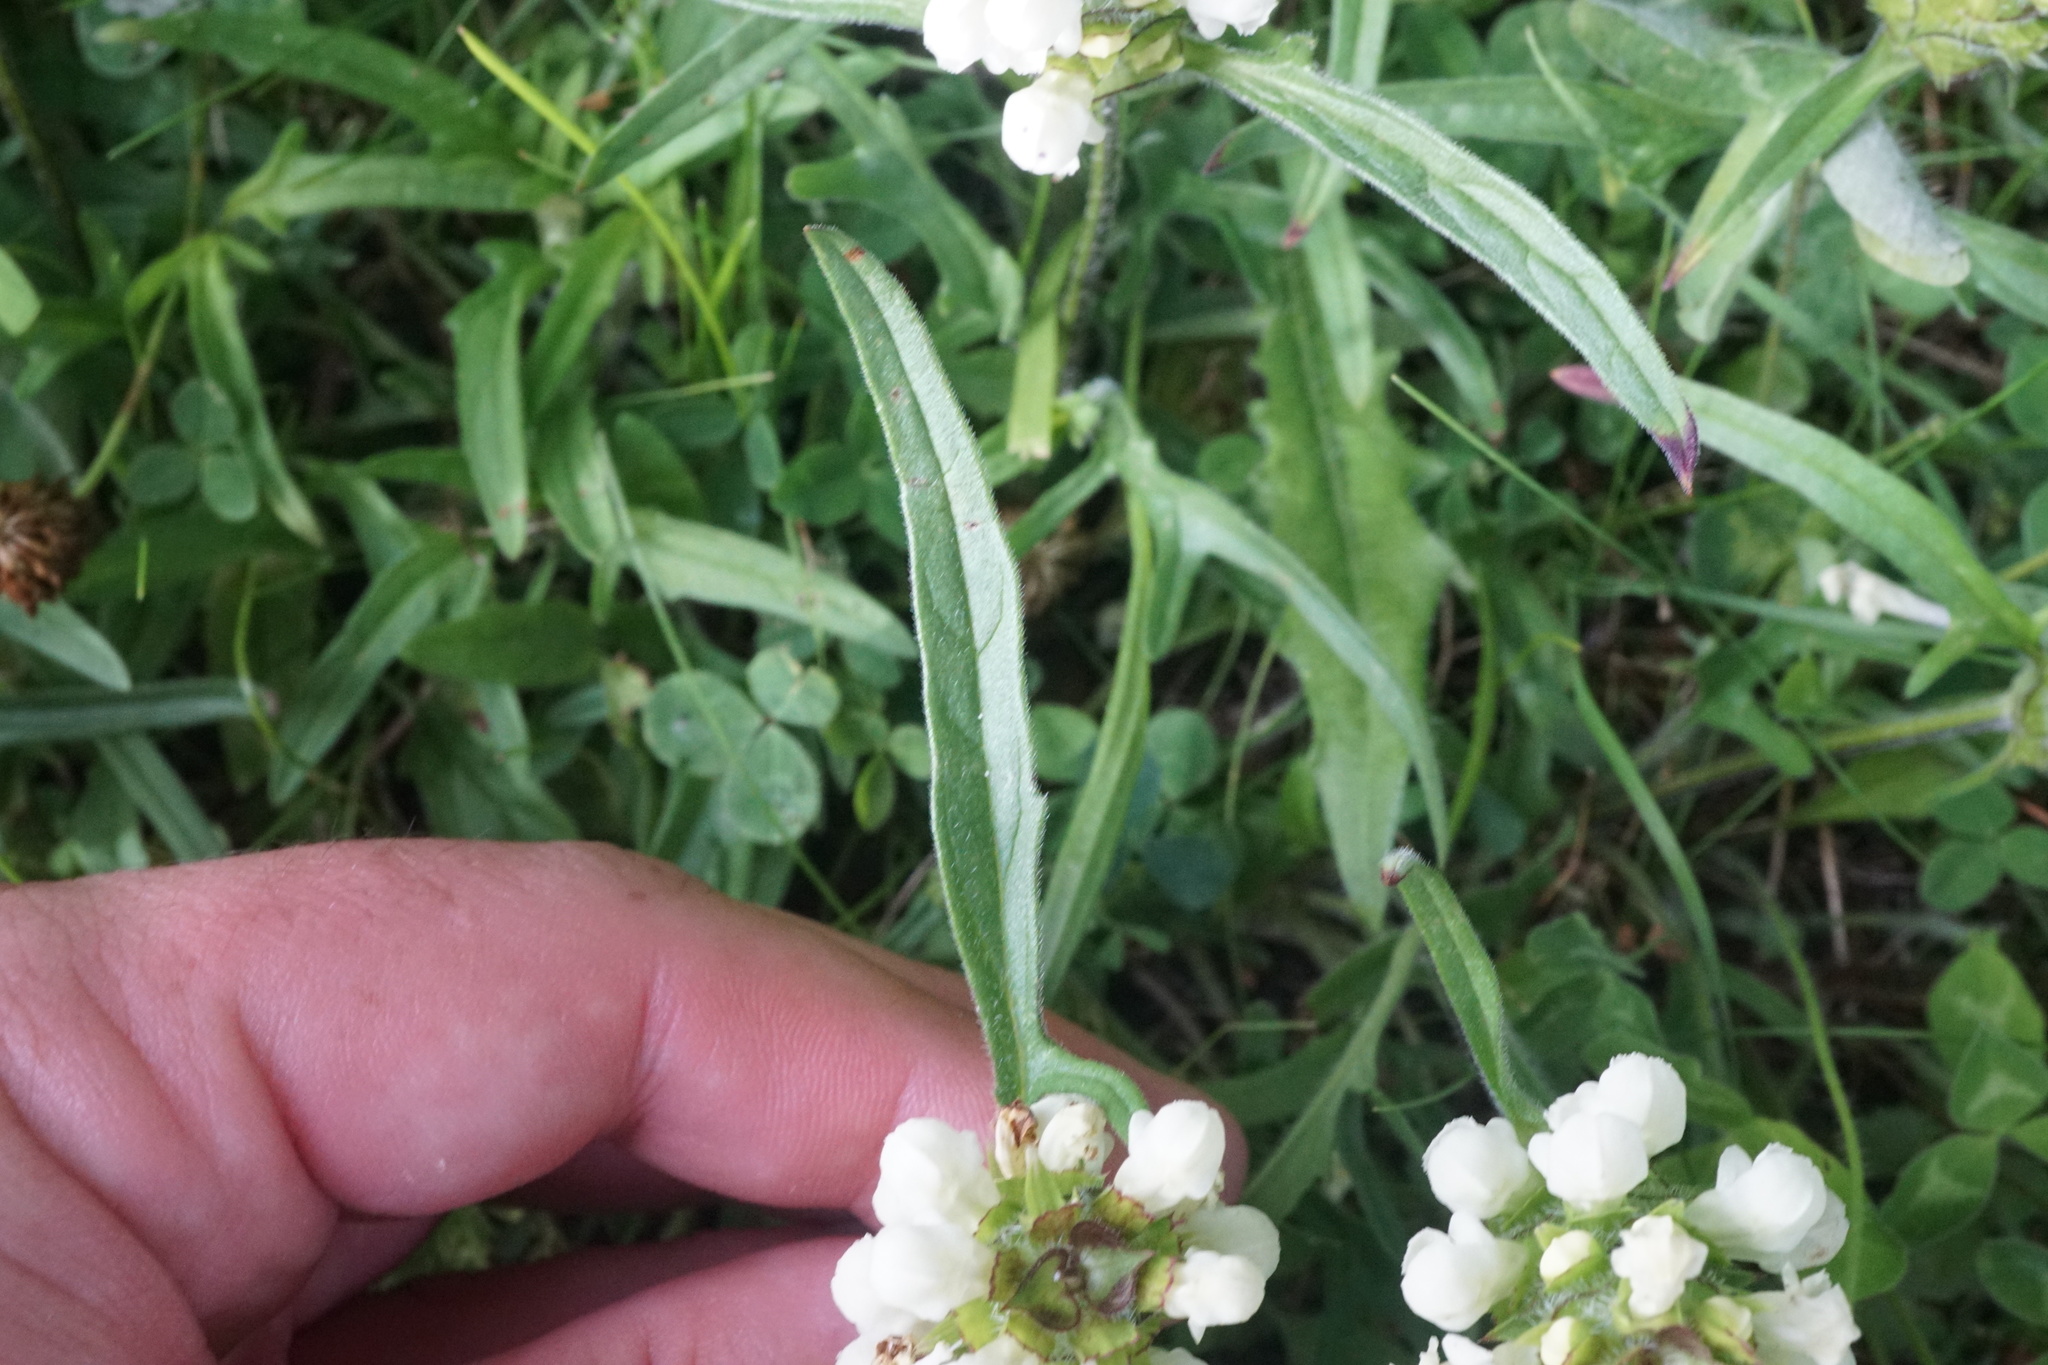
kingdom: Plantae
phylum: Tracheophyta
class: Magnoliopsida
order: Lamiales
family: Lamiaceae
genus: Prunella
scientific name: Prunella laciniata
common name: Cut-leaved selfheal
